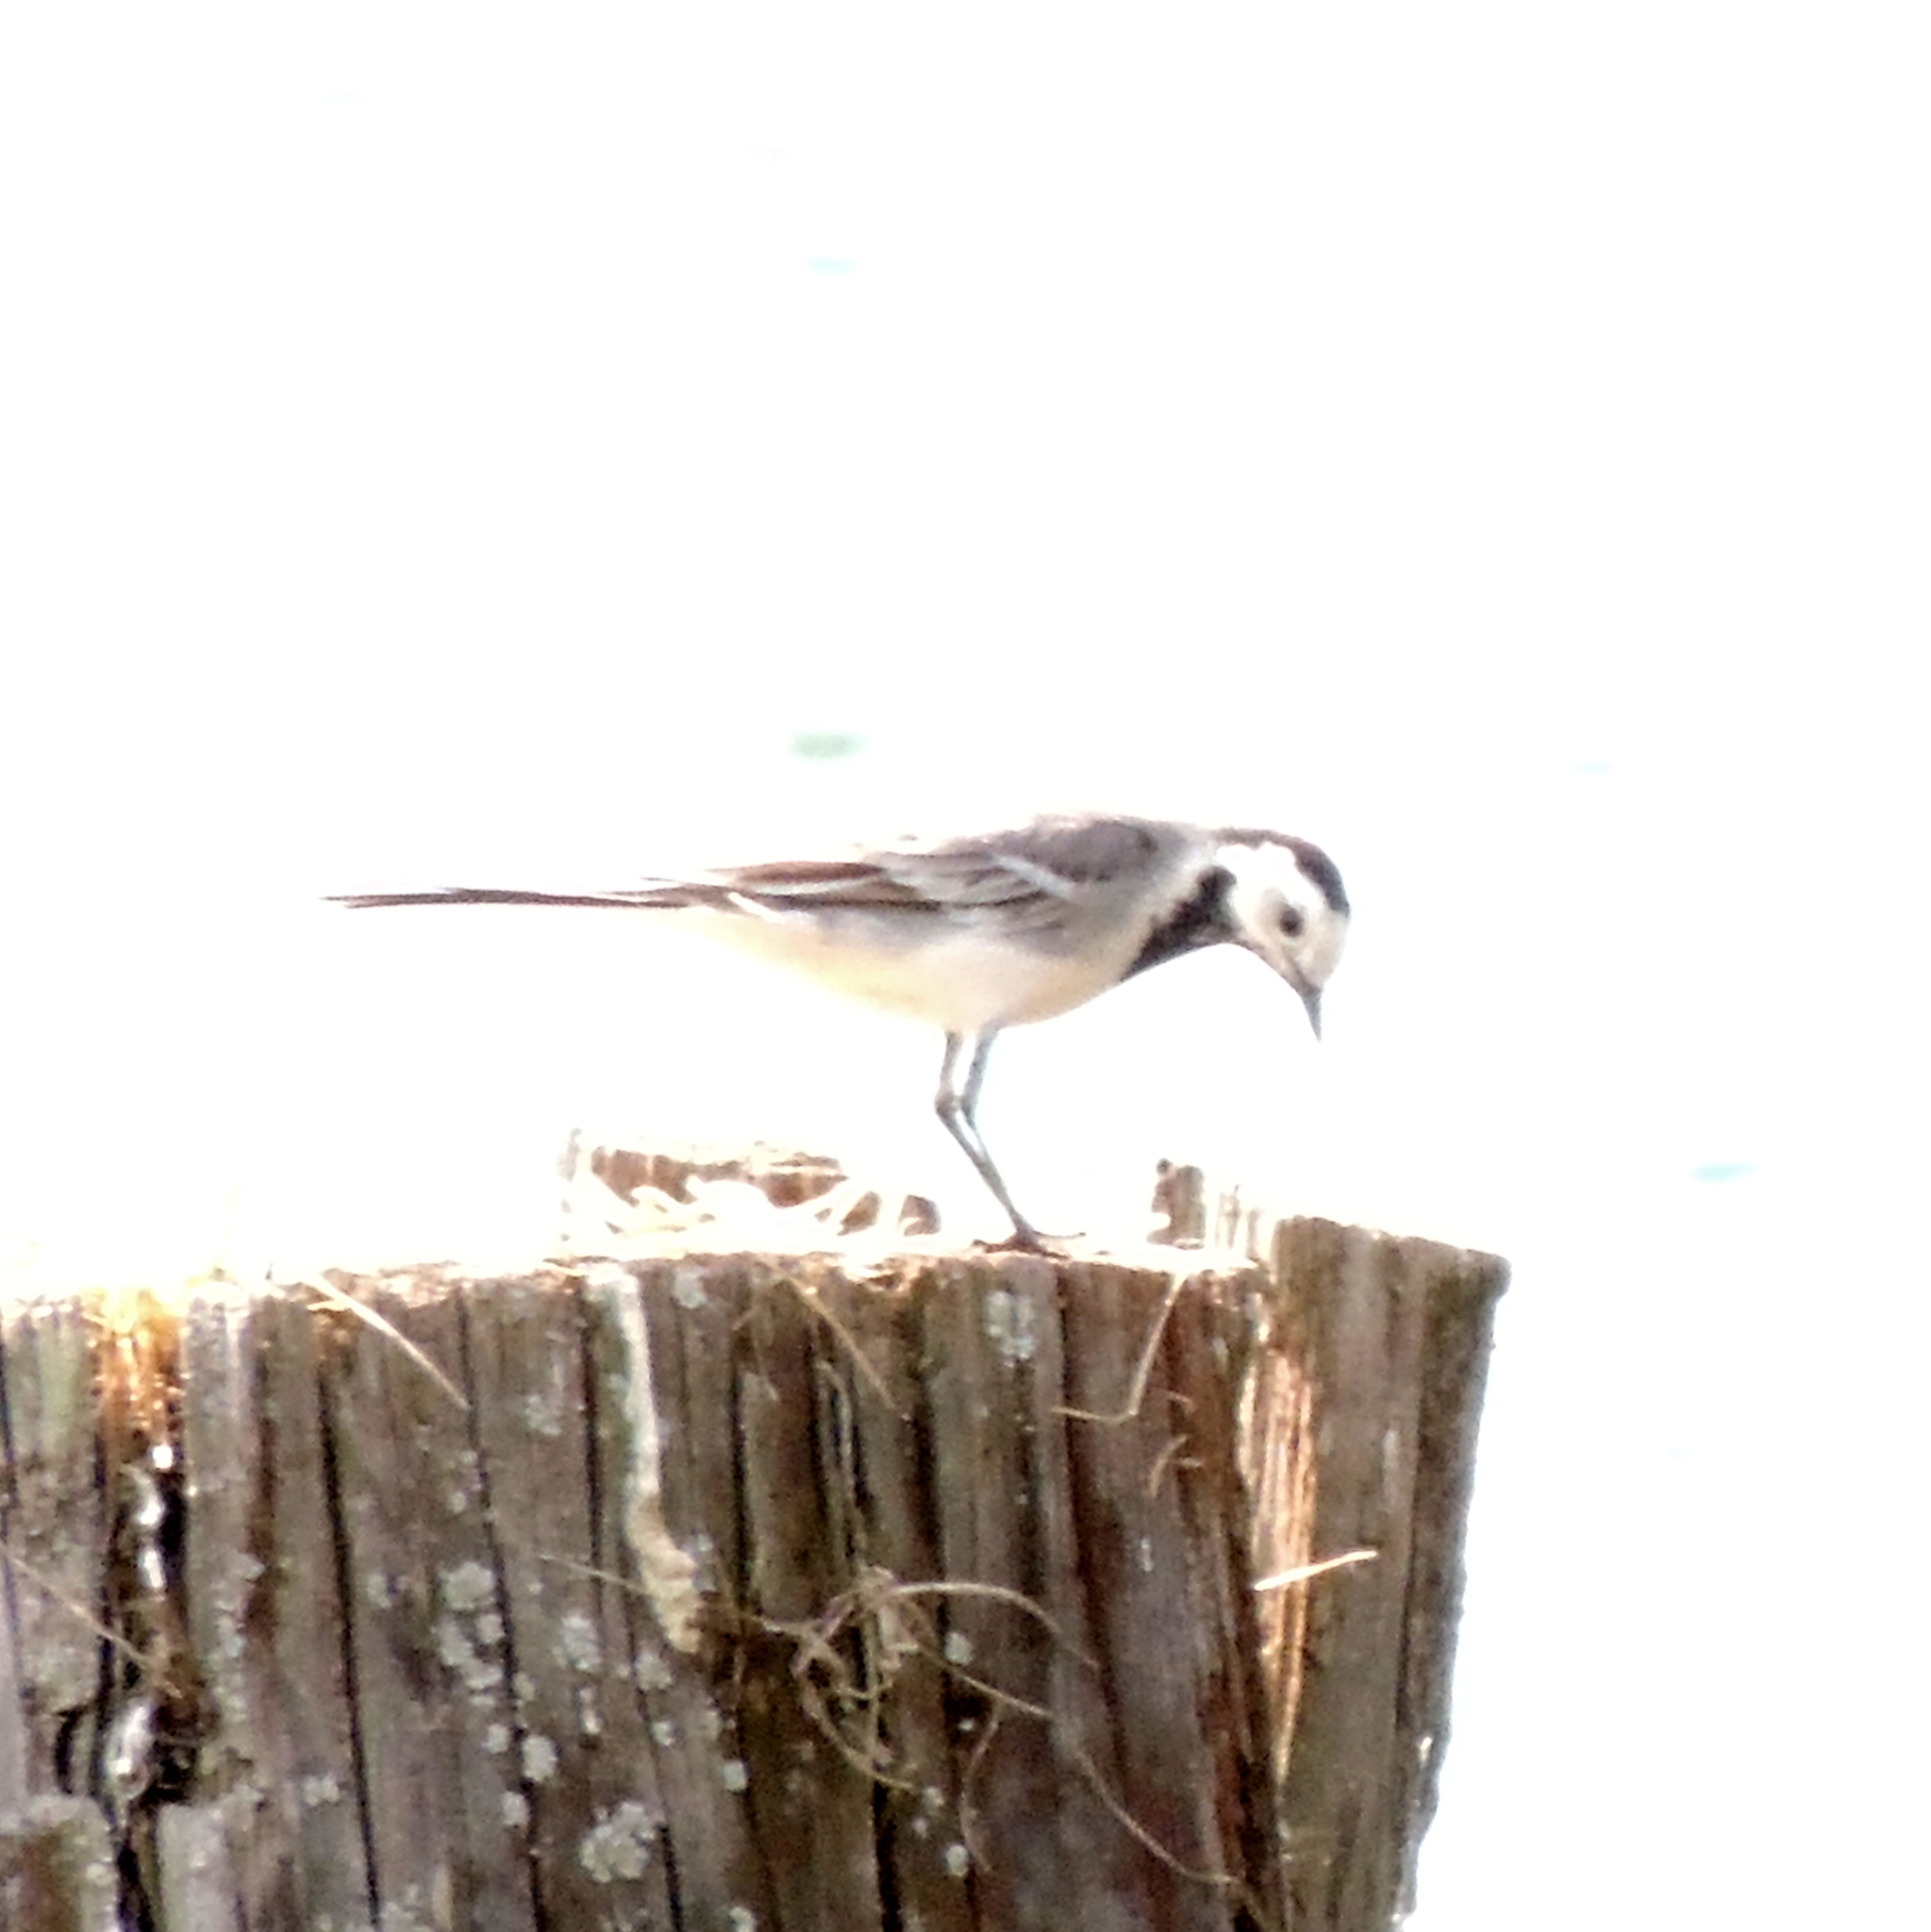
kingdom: Animalia
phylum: Chordata
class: Aves
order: Passeriformes
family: Motacillidae
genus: Motacilla
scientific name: Motacilla alba
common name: White wagtail
